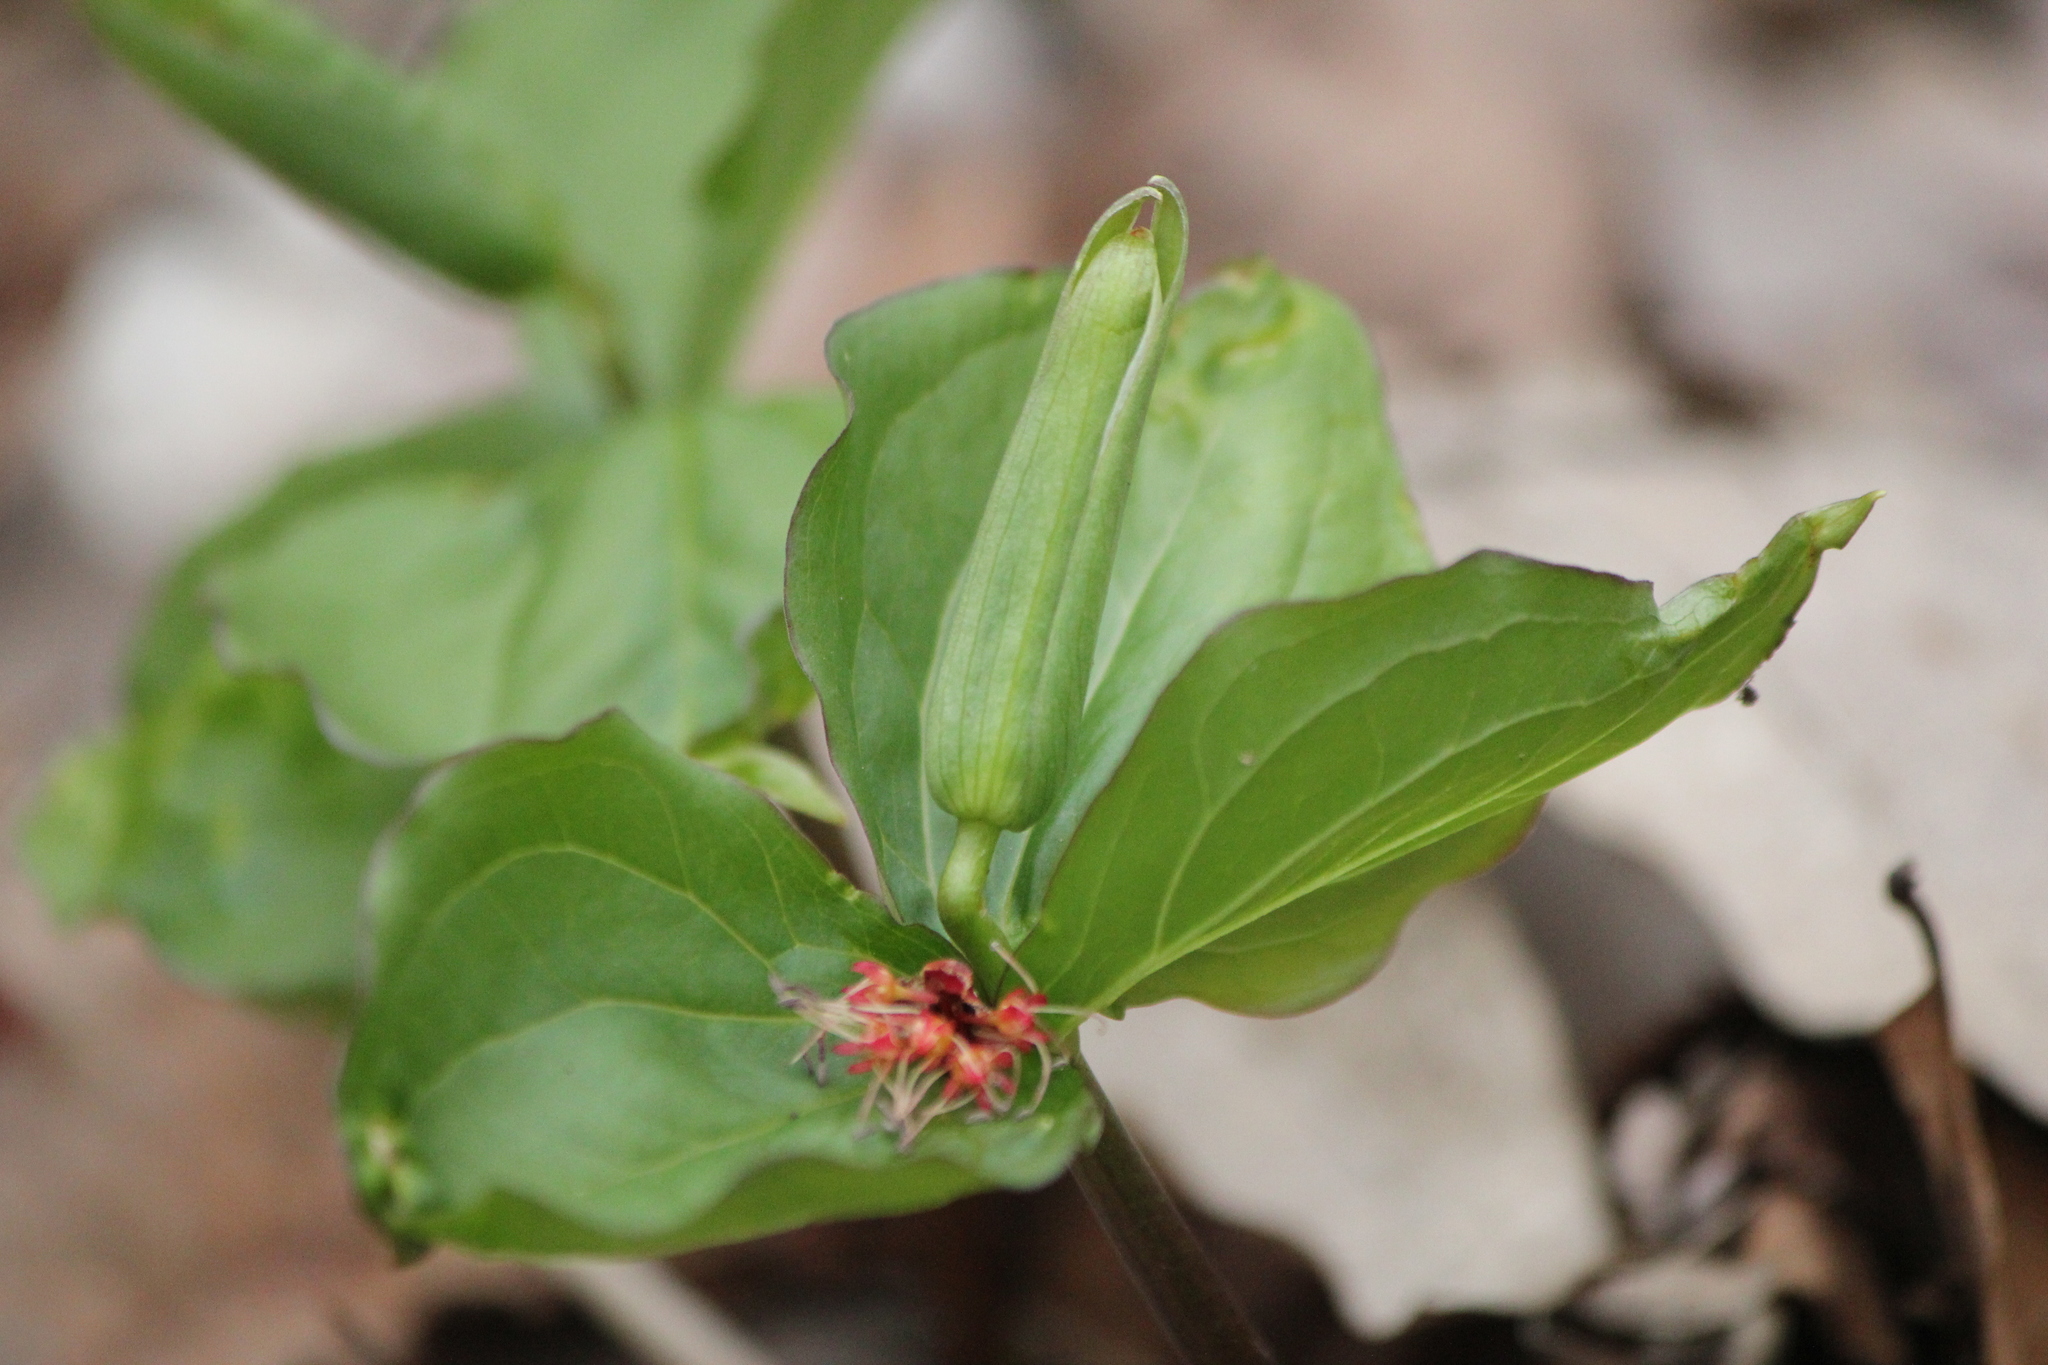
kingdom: Plantae
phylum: Tracheophyta
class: Liliopsida
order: Liliales
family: Melanthiaceae
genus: Trillium
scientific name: Trillium erectum
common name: Purple trillium
